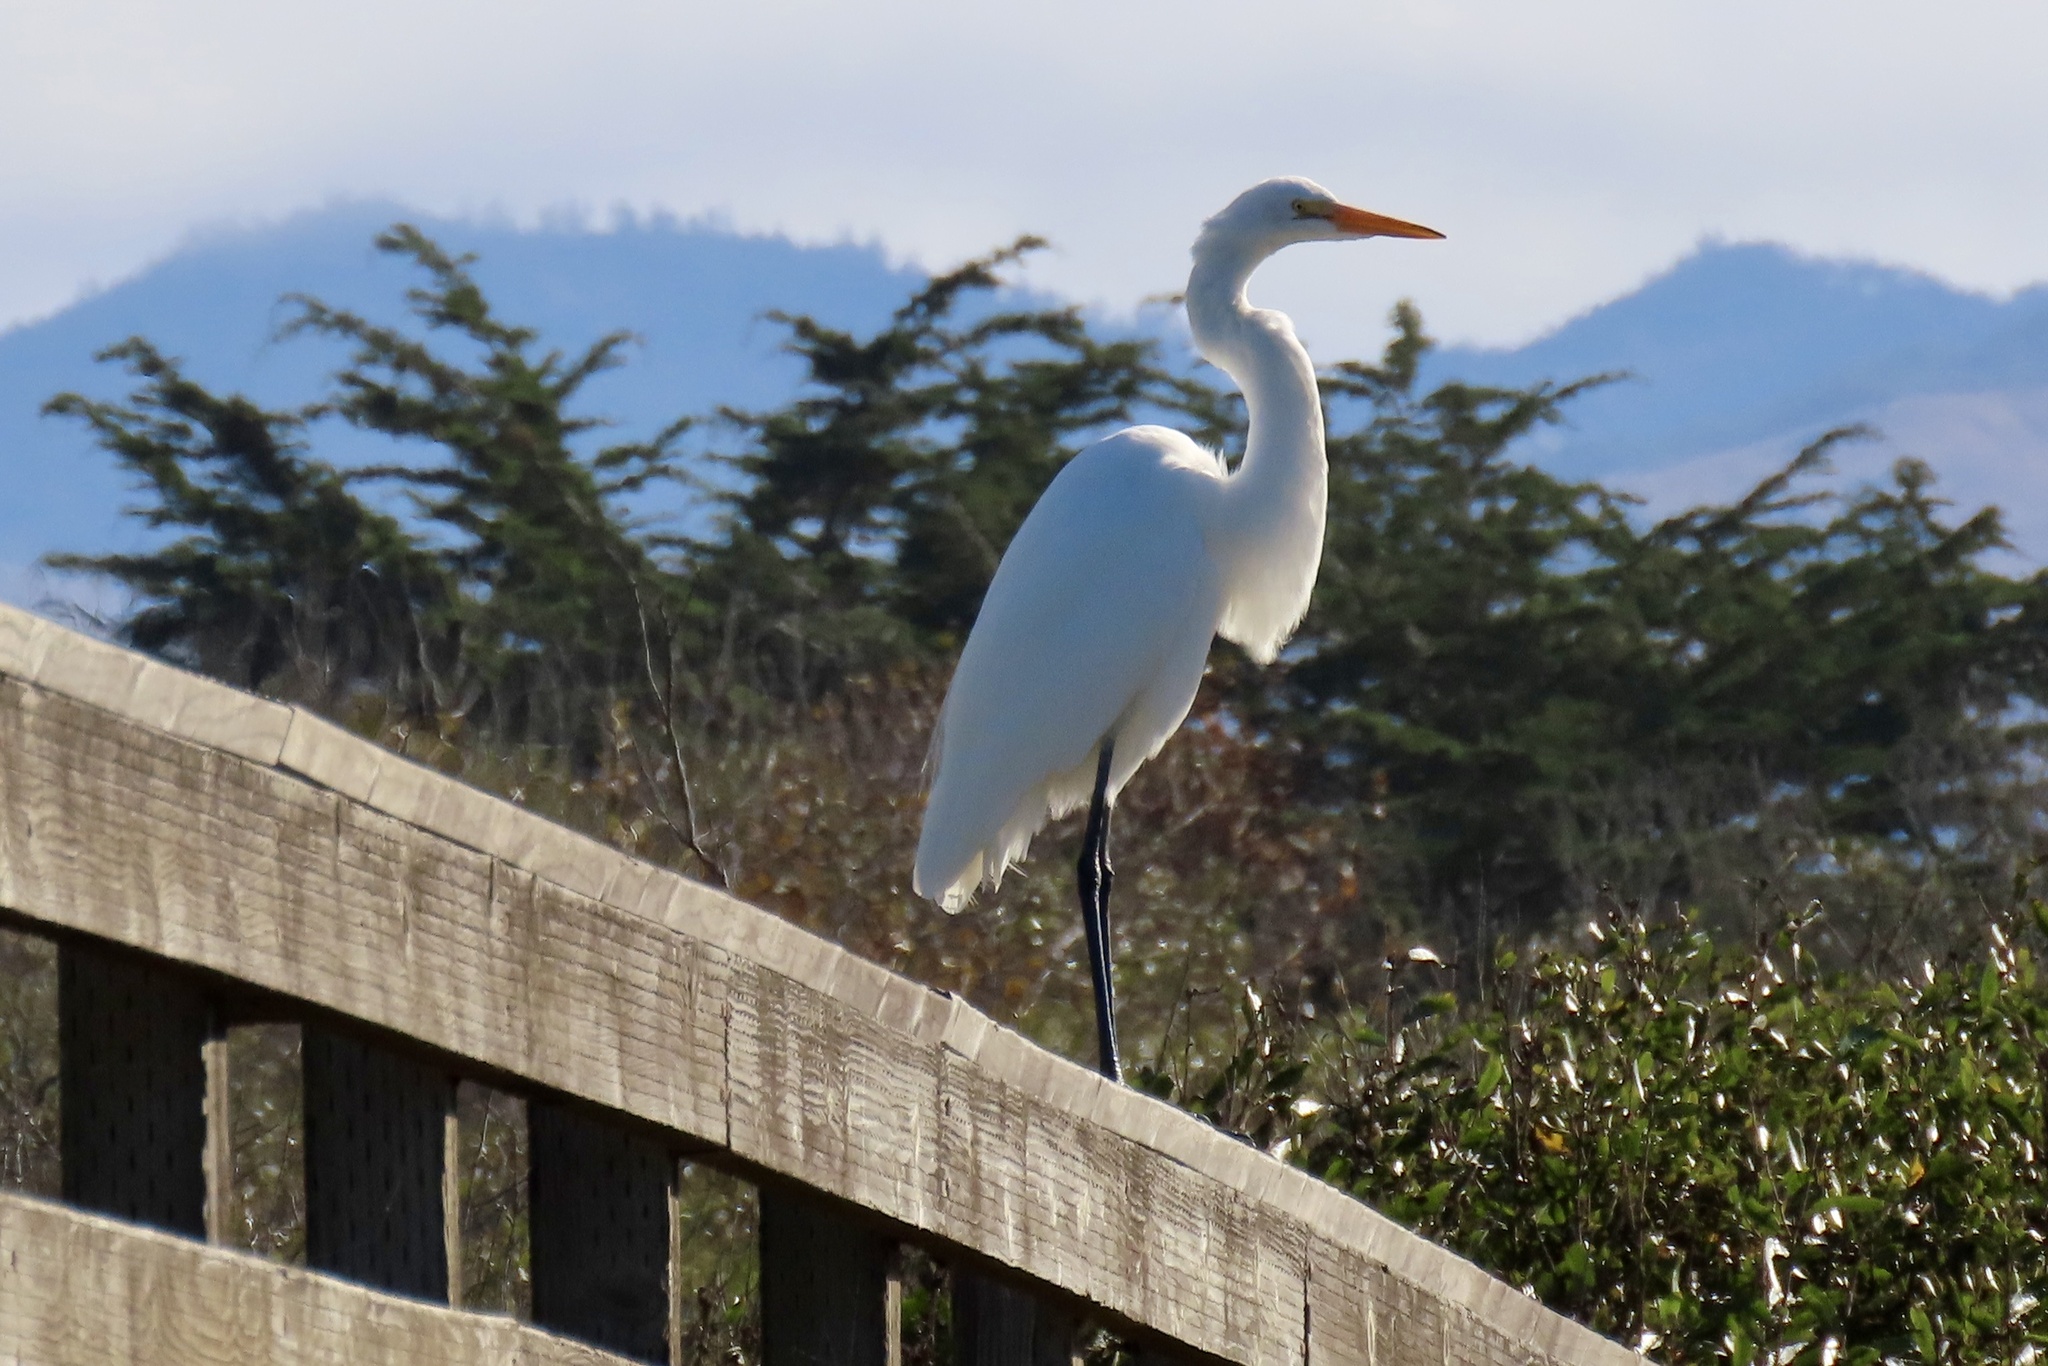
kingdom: Animalia
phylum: Chordata
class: Aves
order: Pelecaniformes
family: Ardeidae
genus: Ardea
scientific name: Ardea alba
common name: Great egret
